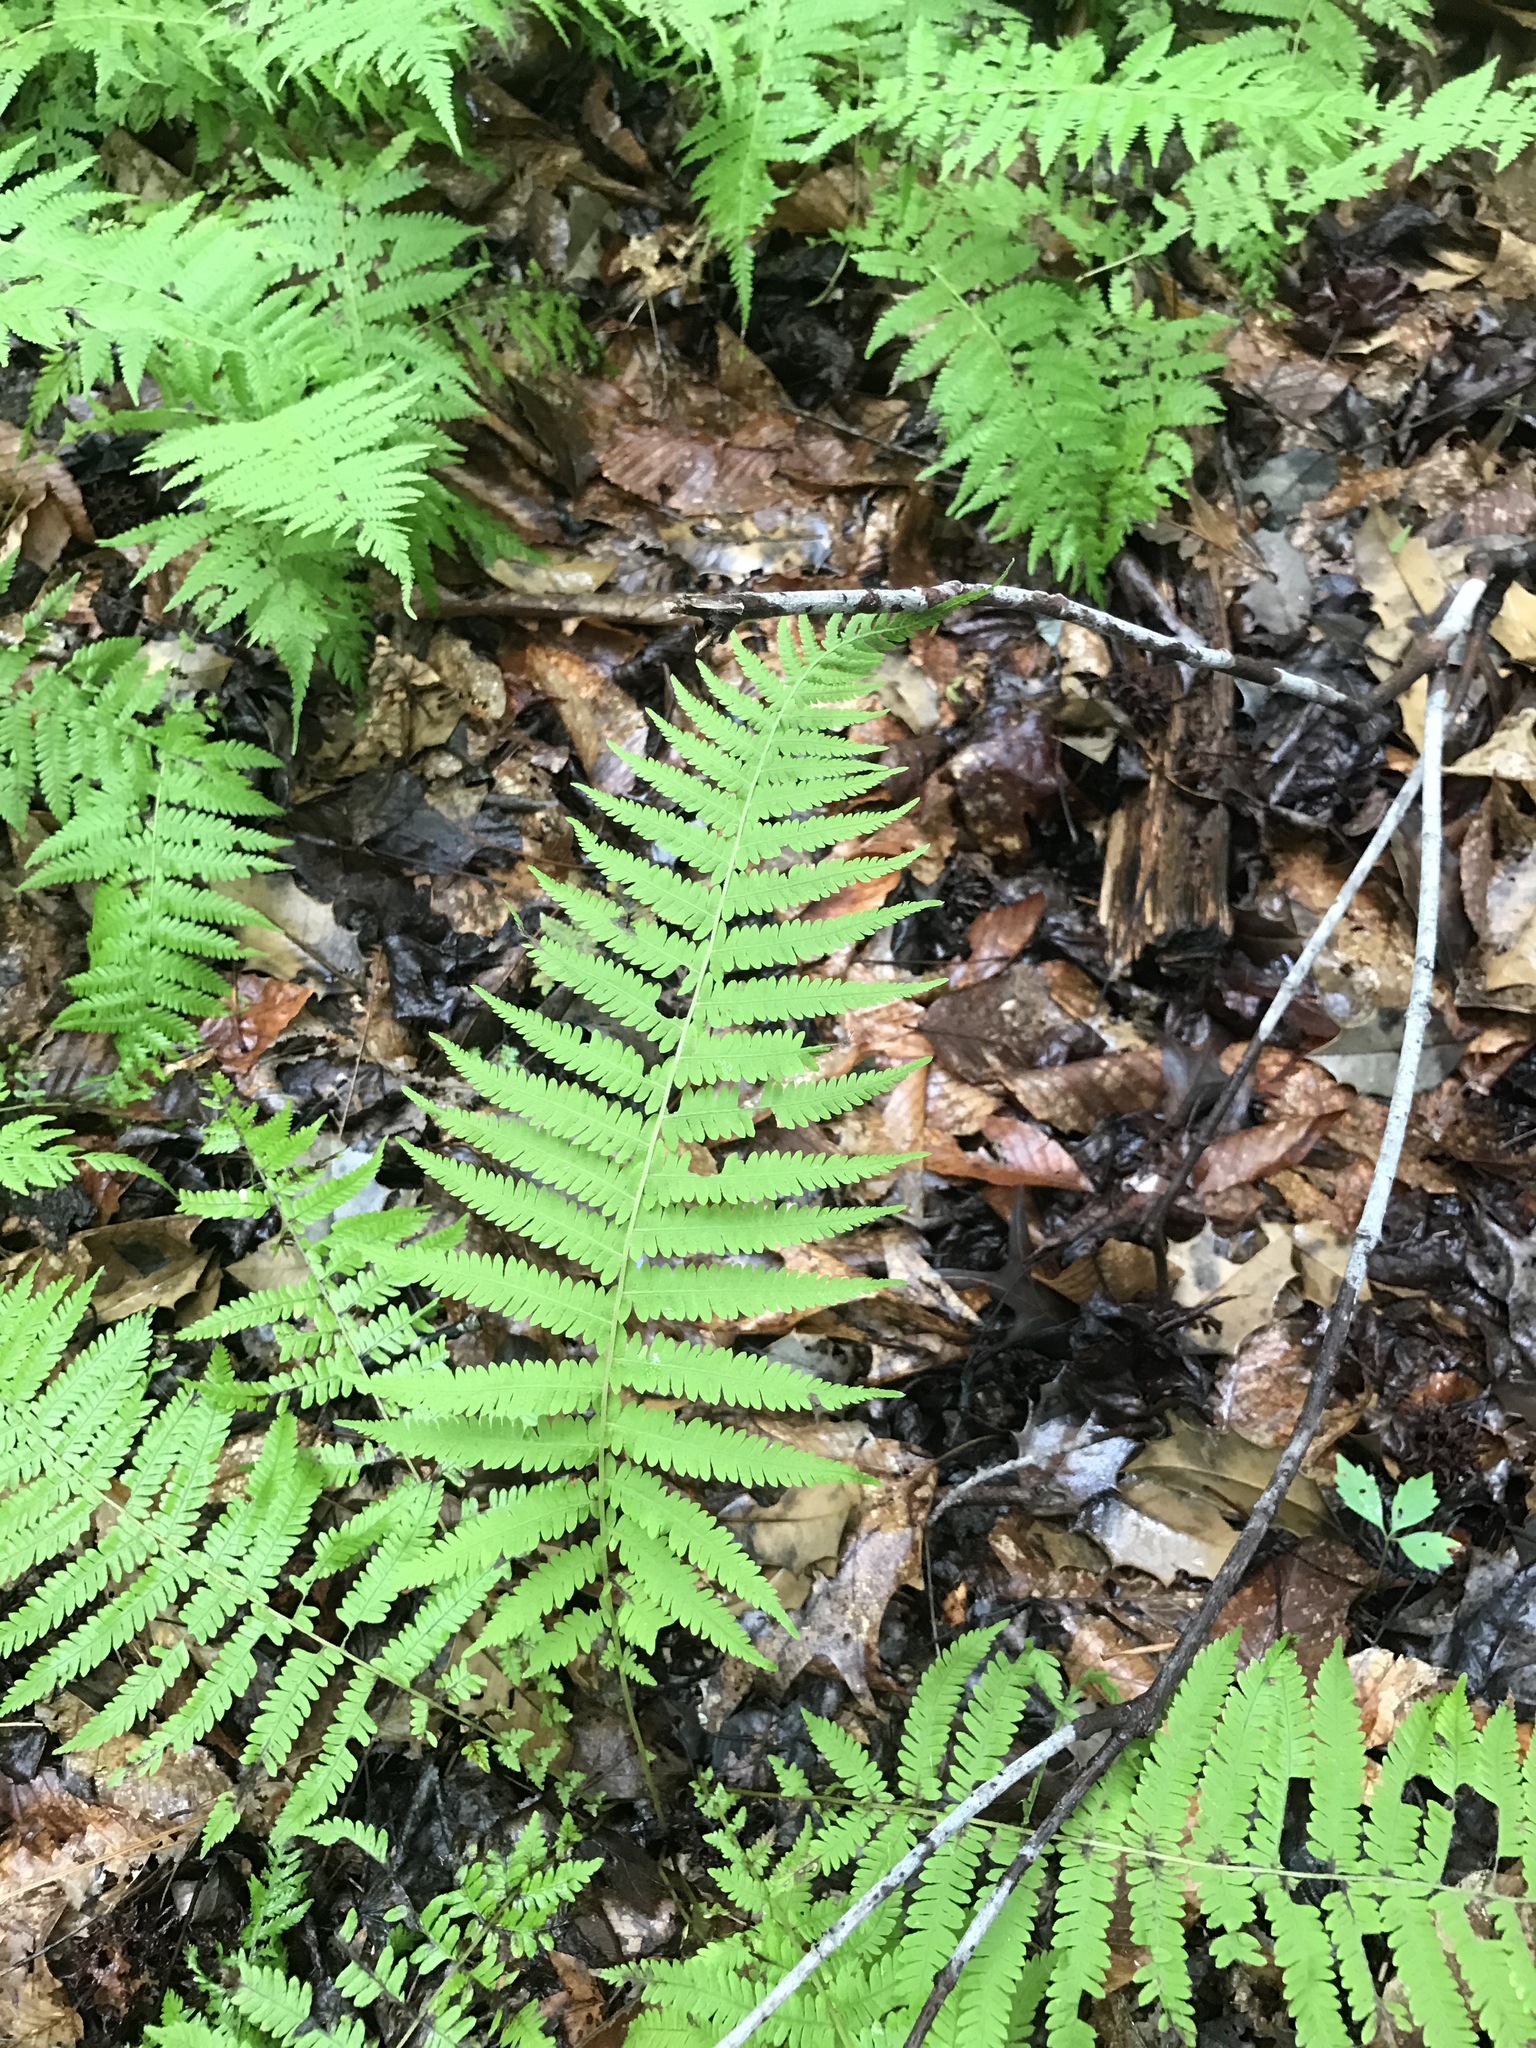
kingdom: Plantae
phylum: Tracheophyta
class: Polypodiopsida
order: Polypodiales
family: Thelypteridaceae
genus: Amauropelta
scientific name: Amauropelta noveboracensis
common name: New york fern
